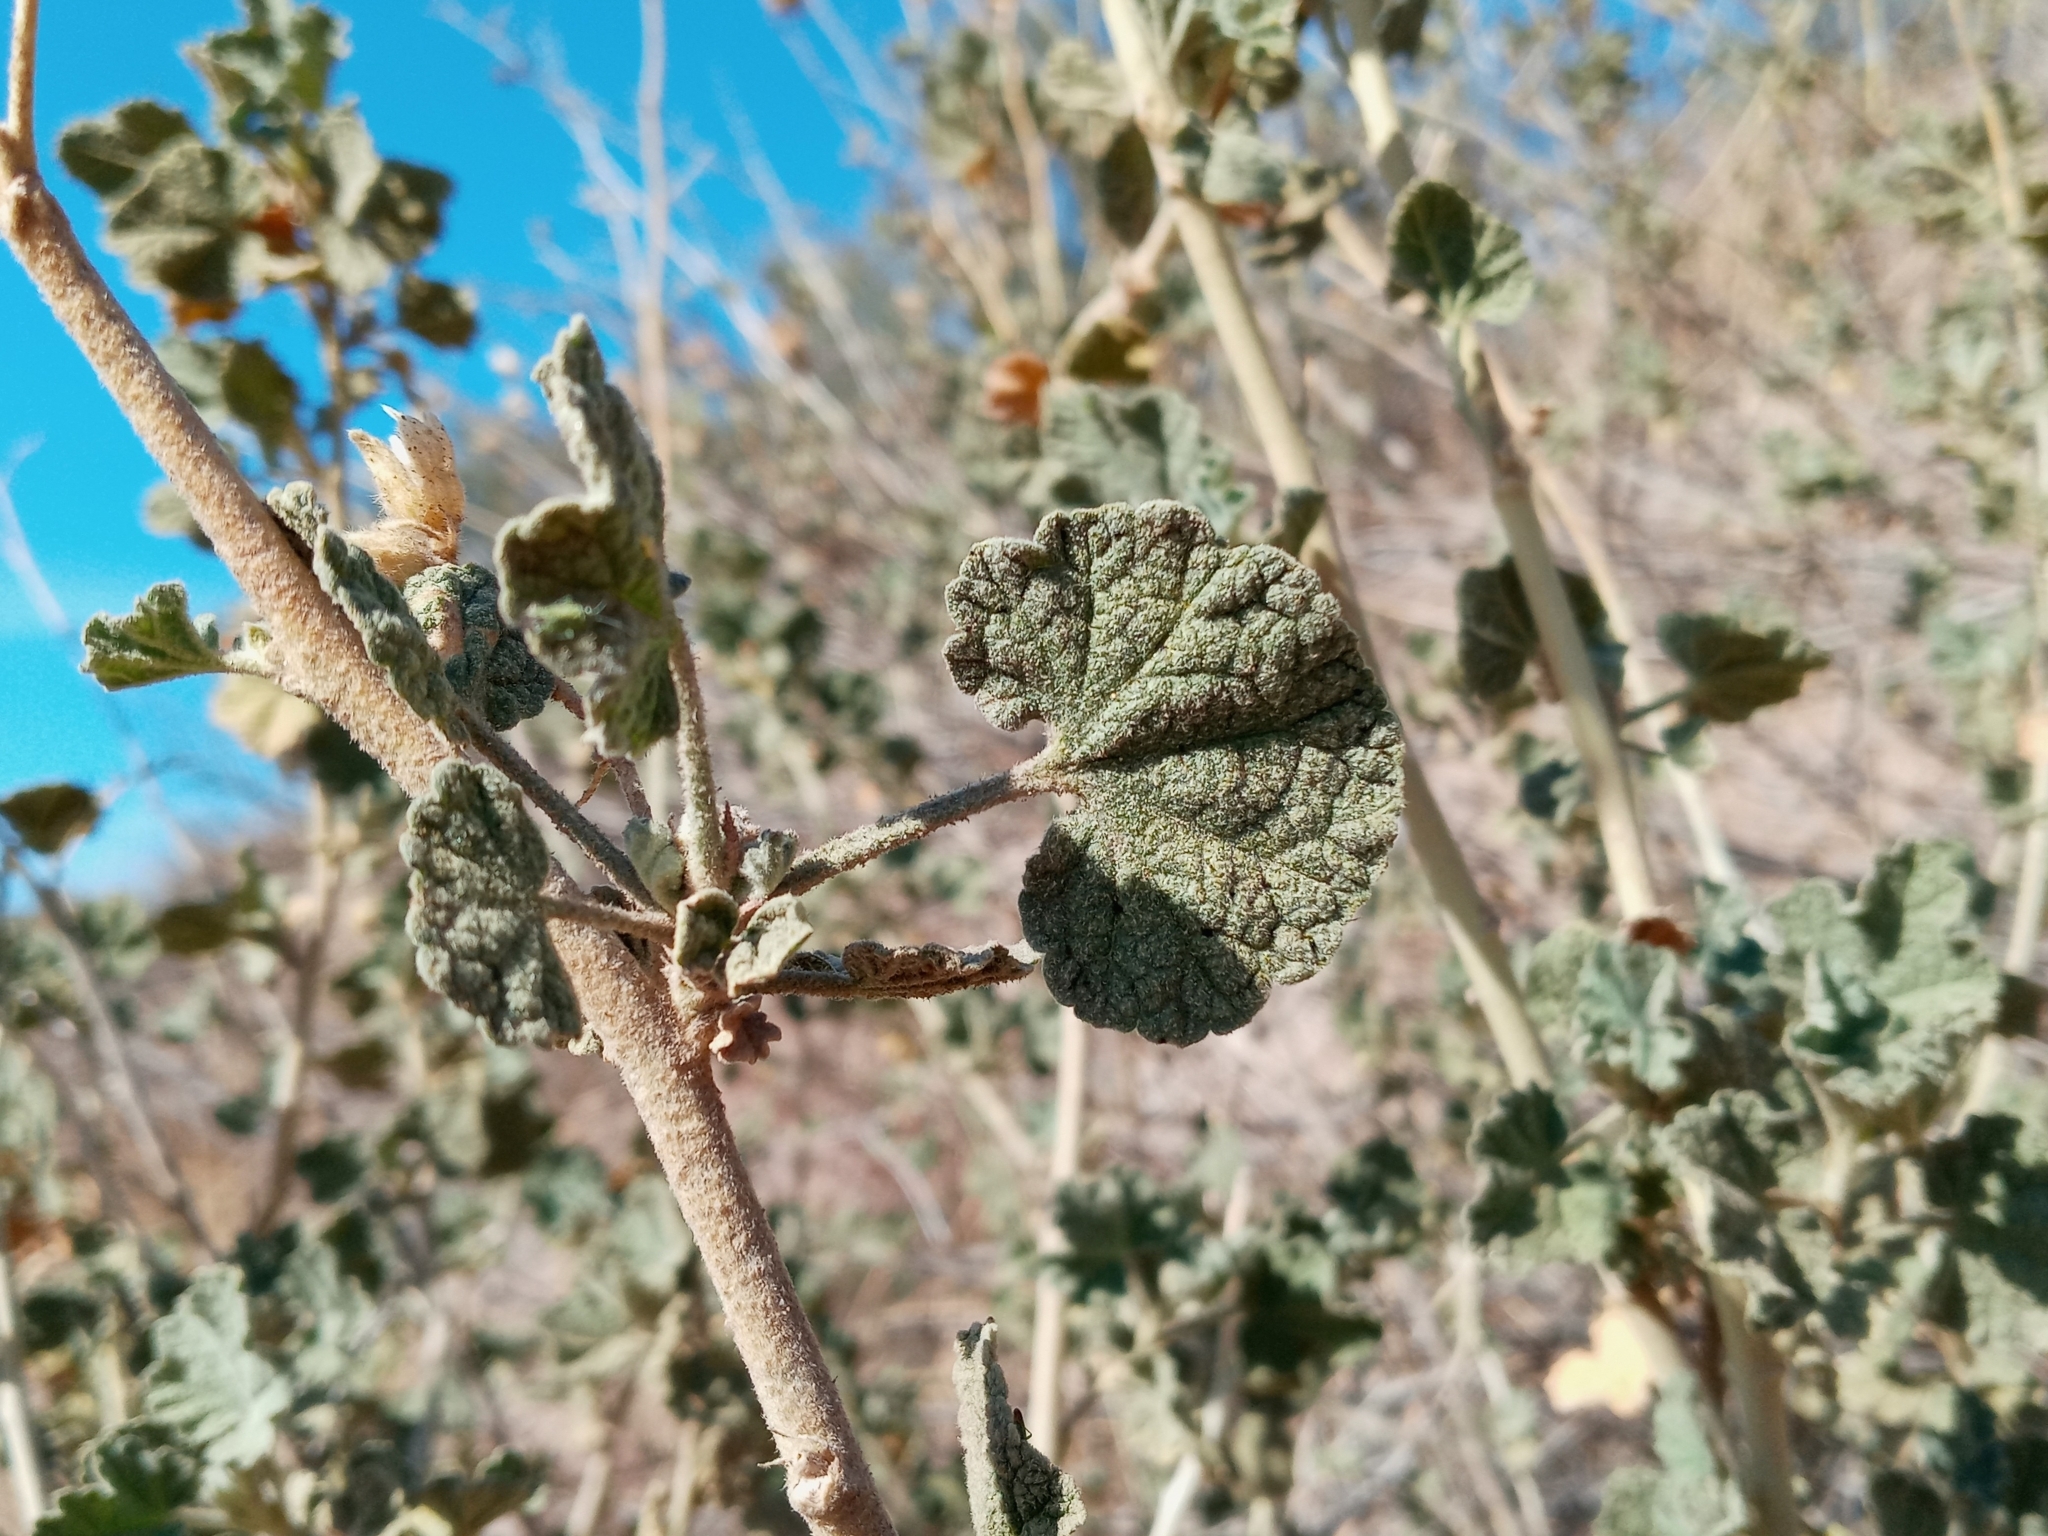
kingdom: Plantae
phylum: Tracheophyta
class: Magnoliopsida
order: Malvales
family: Malvaceae
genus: Malacothamnus
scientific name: Malacothamnus marrubioides
